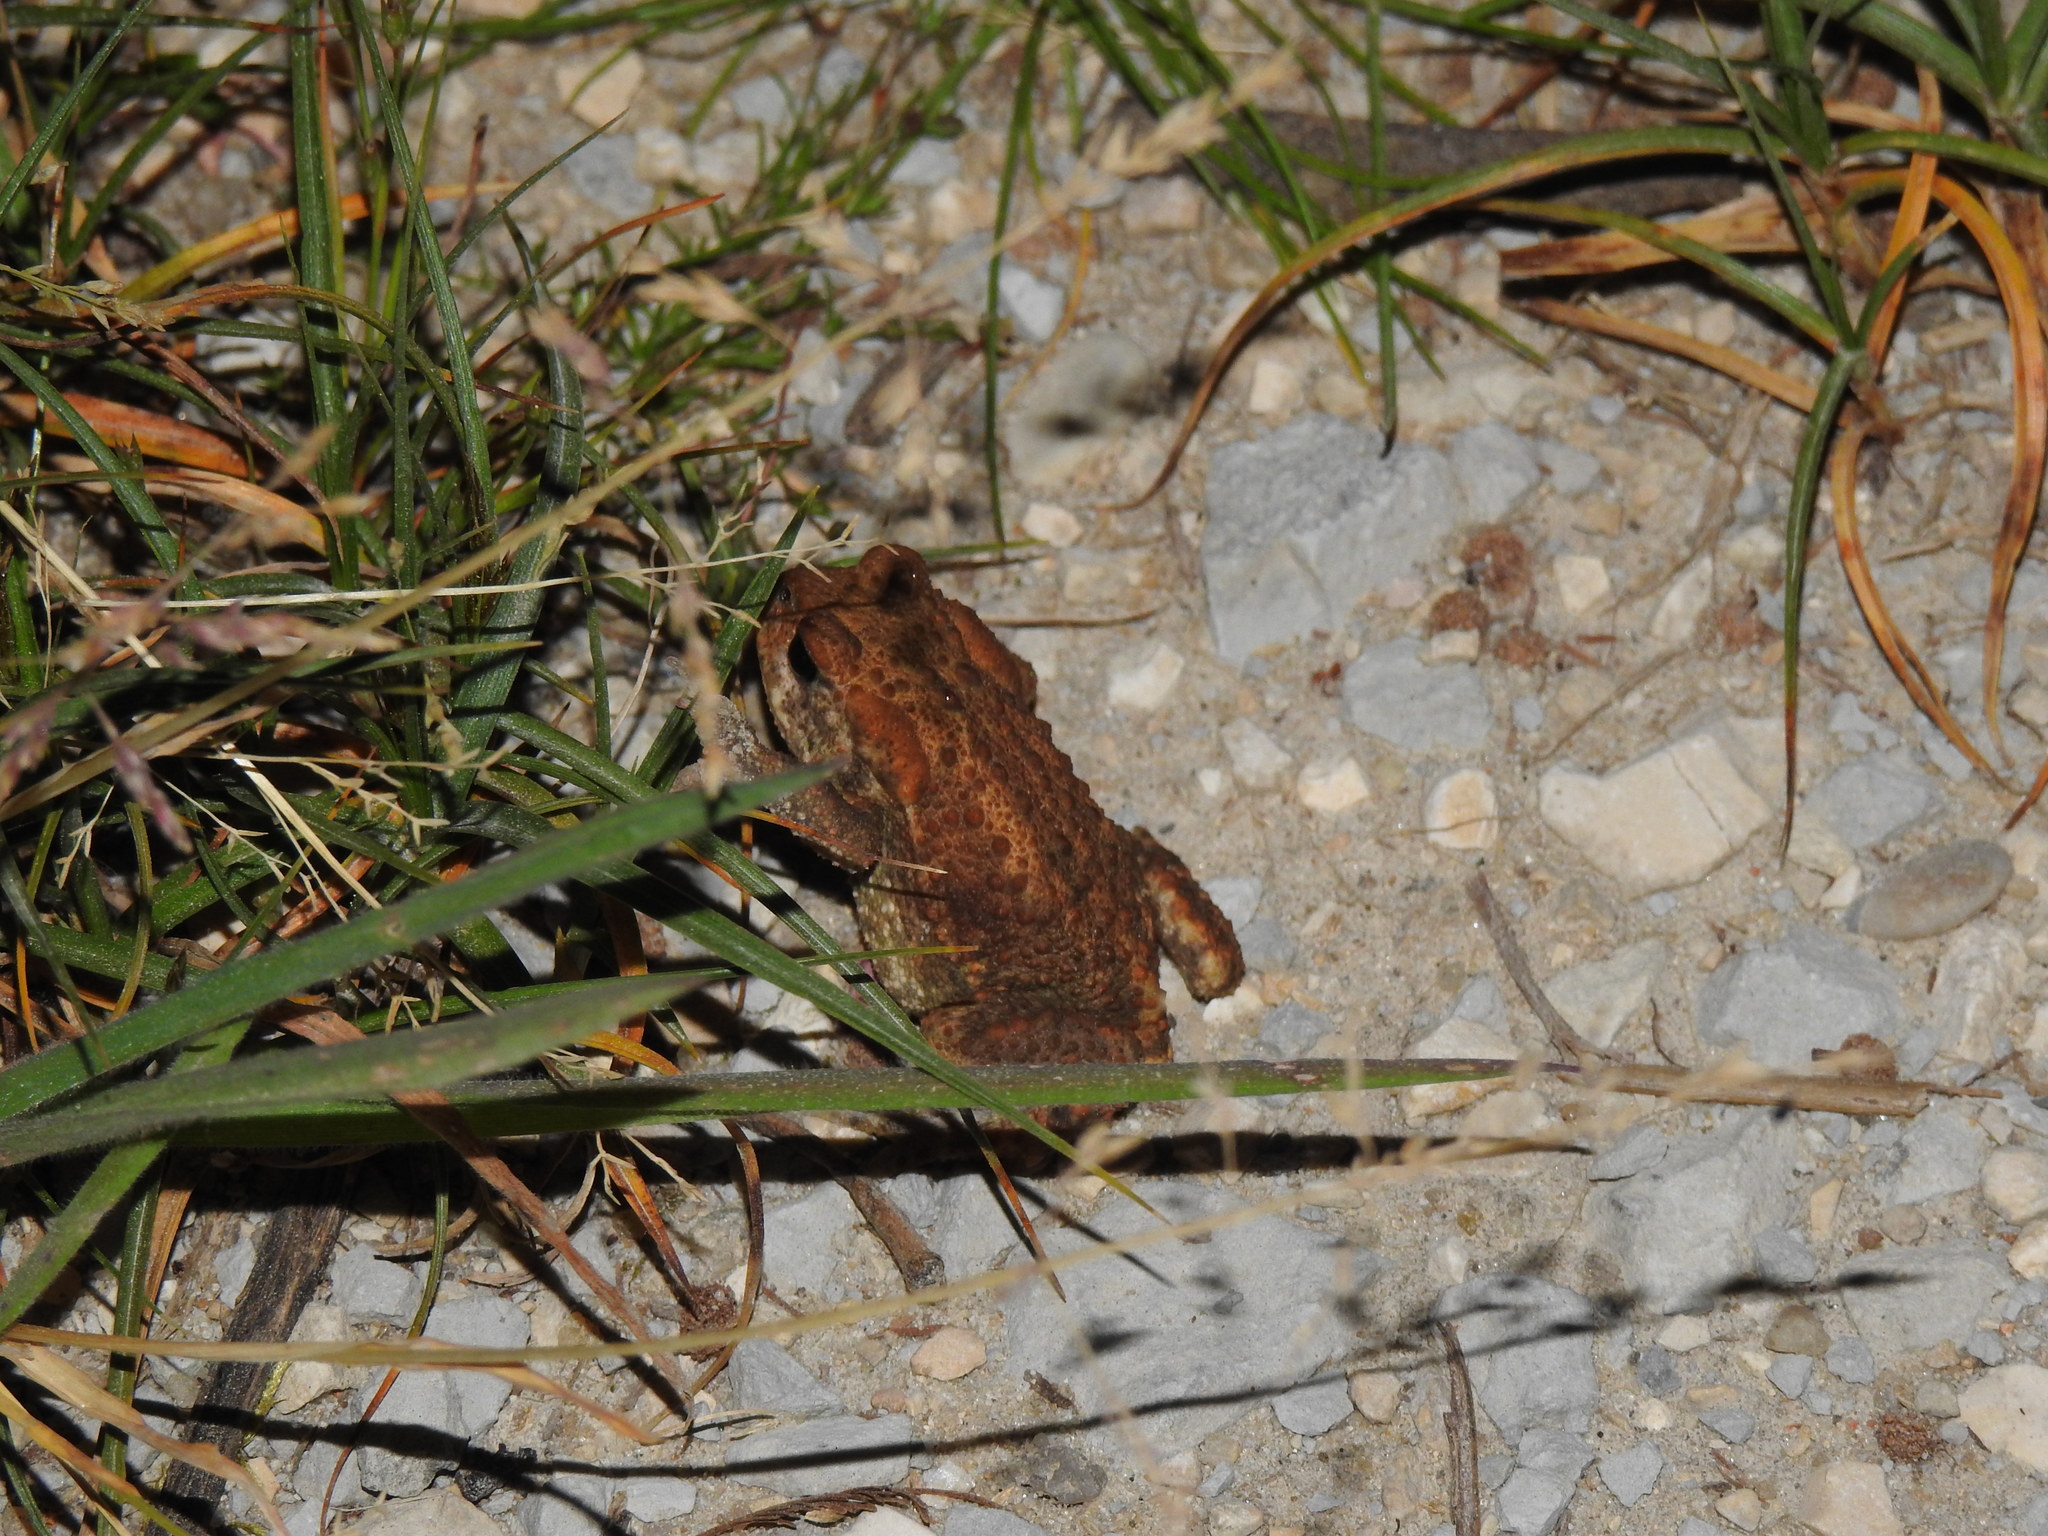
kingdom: Animalia
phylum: Chordata
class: Amphibia
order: Anura
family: Bufonidae
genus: Bufo
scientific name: Bufo spinosus
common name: Western common toad
